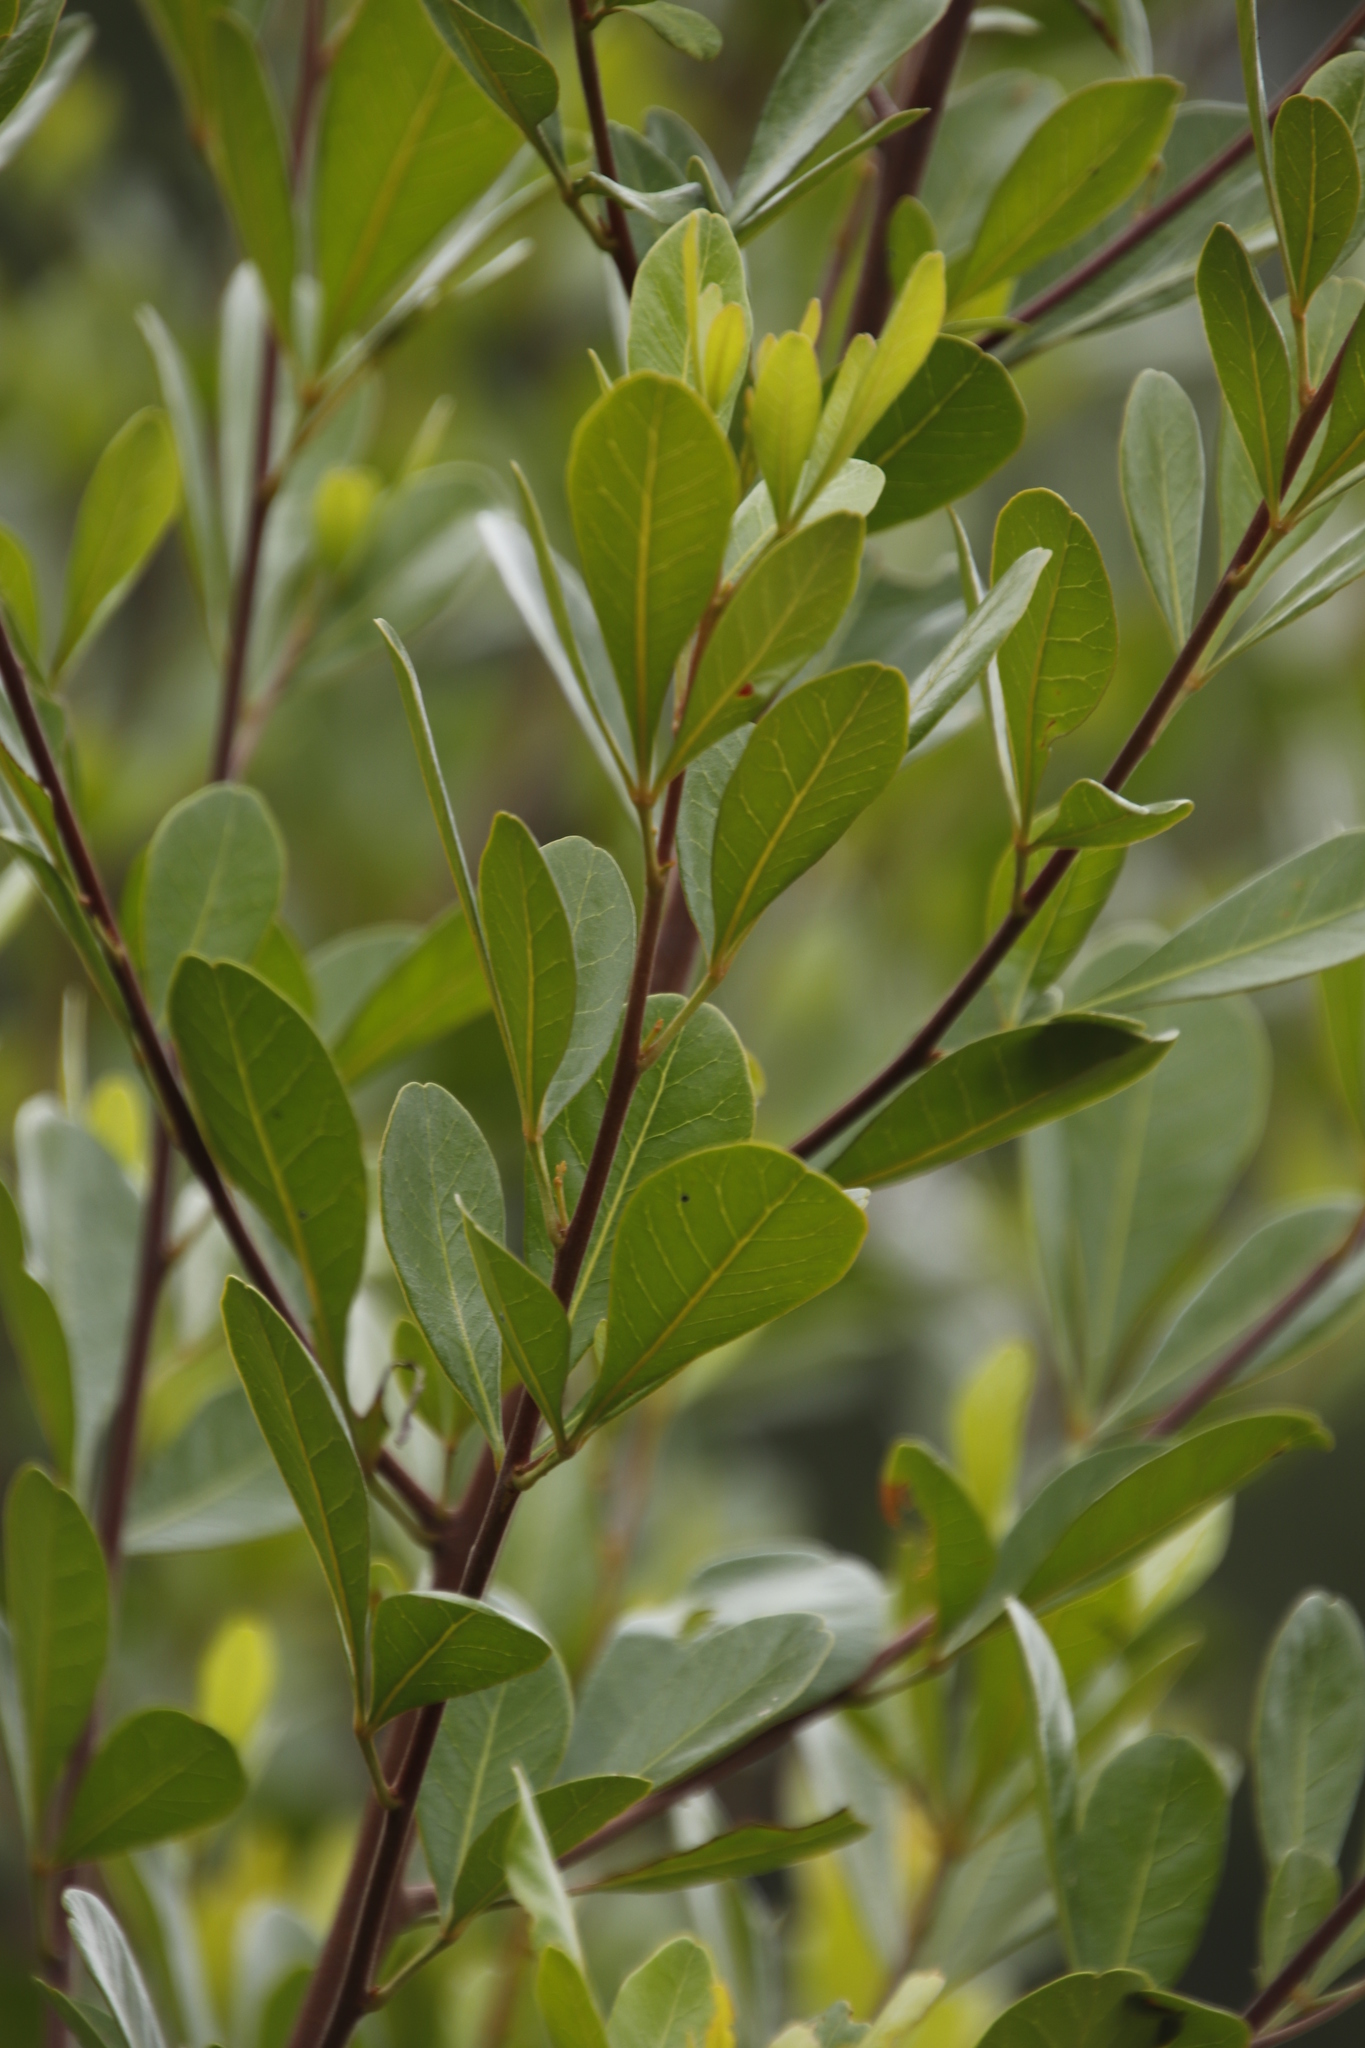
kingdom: Plantae
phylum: Tracheophyta
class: Magnoliopsida
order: Sapindales
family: Anacardiaceae
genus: Searsia
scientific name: Searsia lucida
